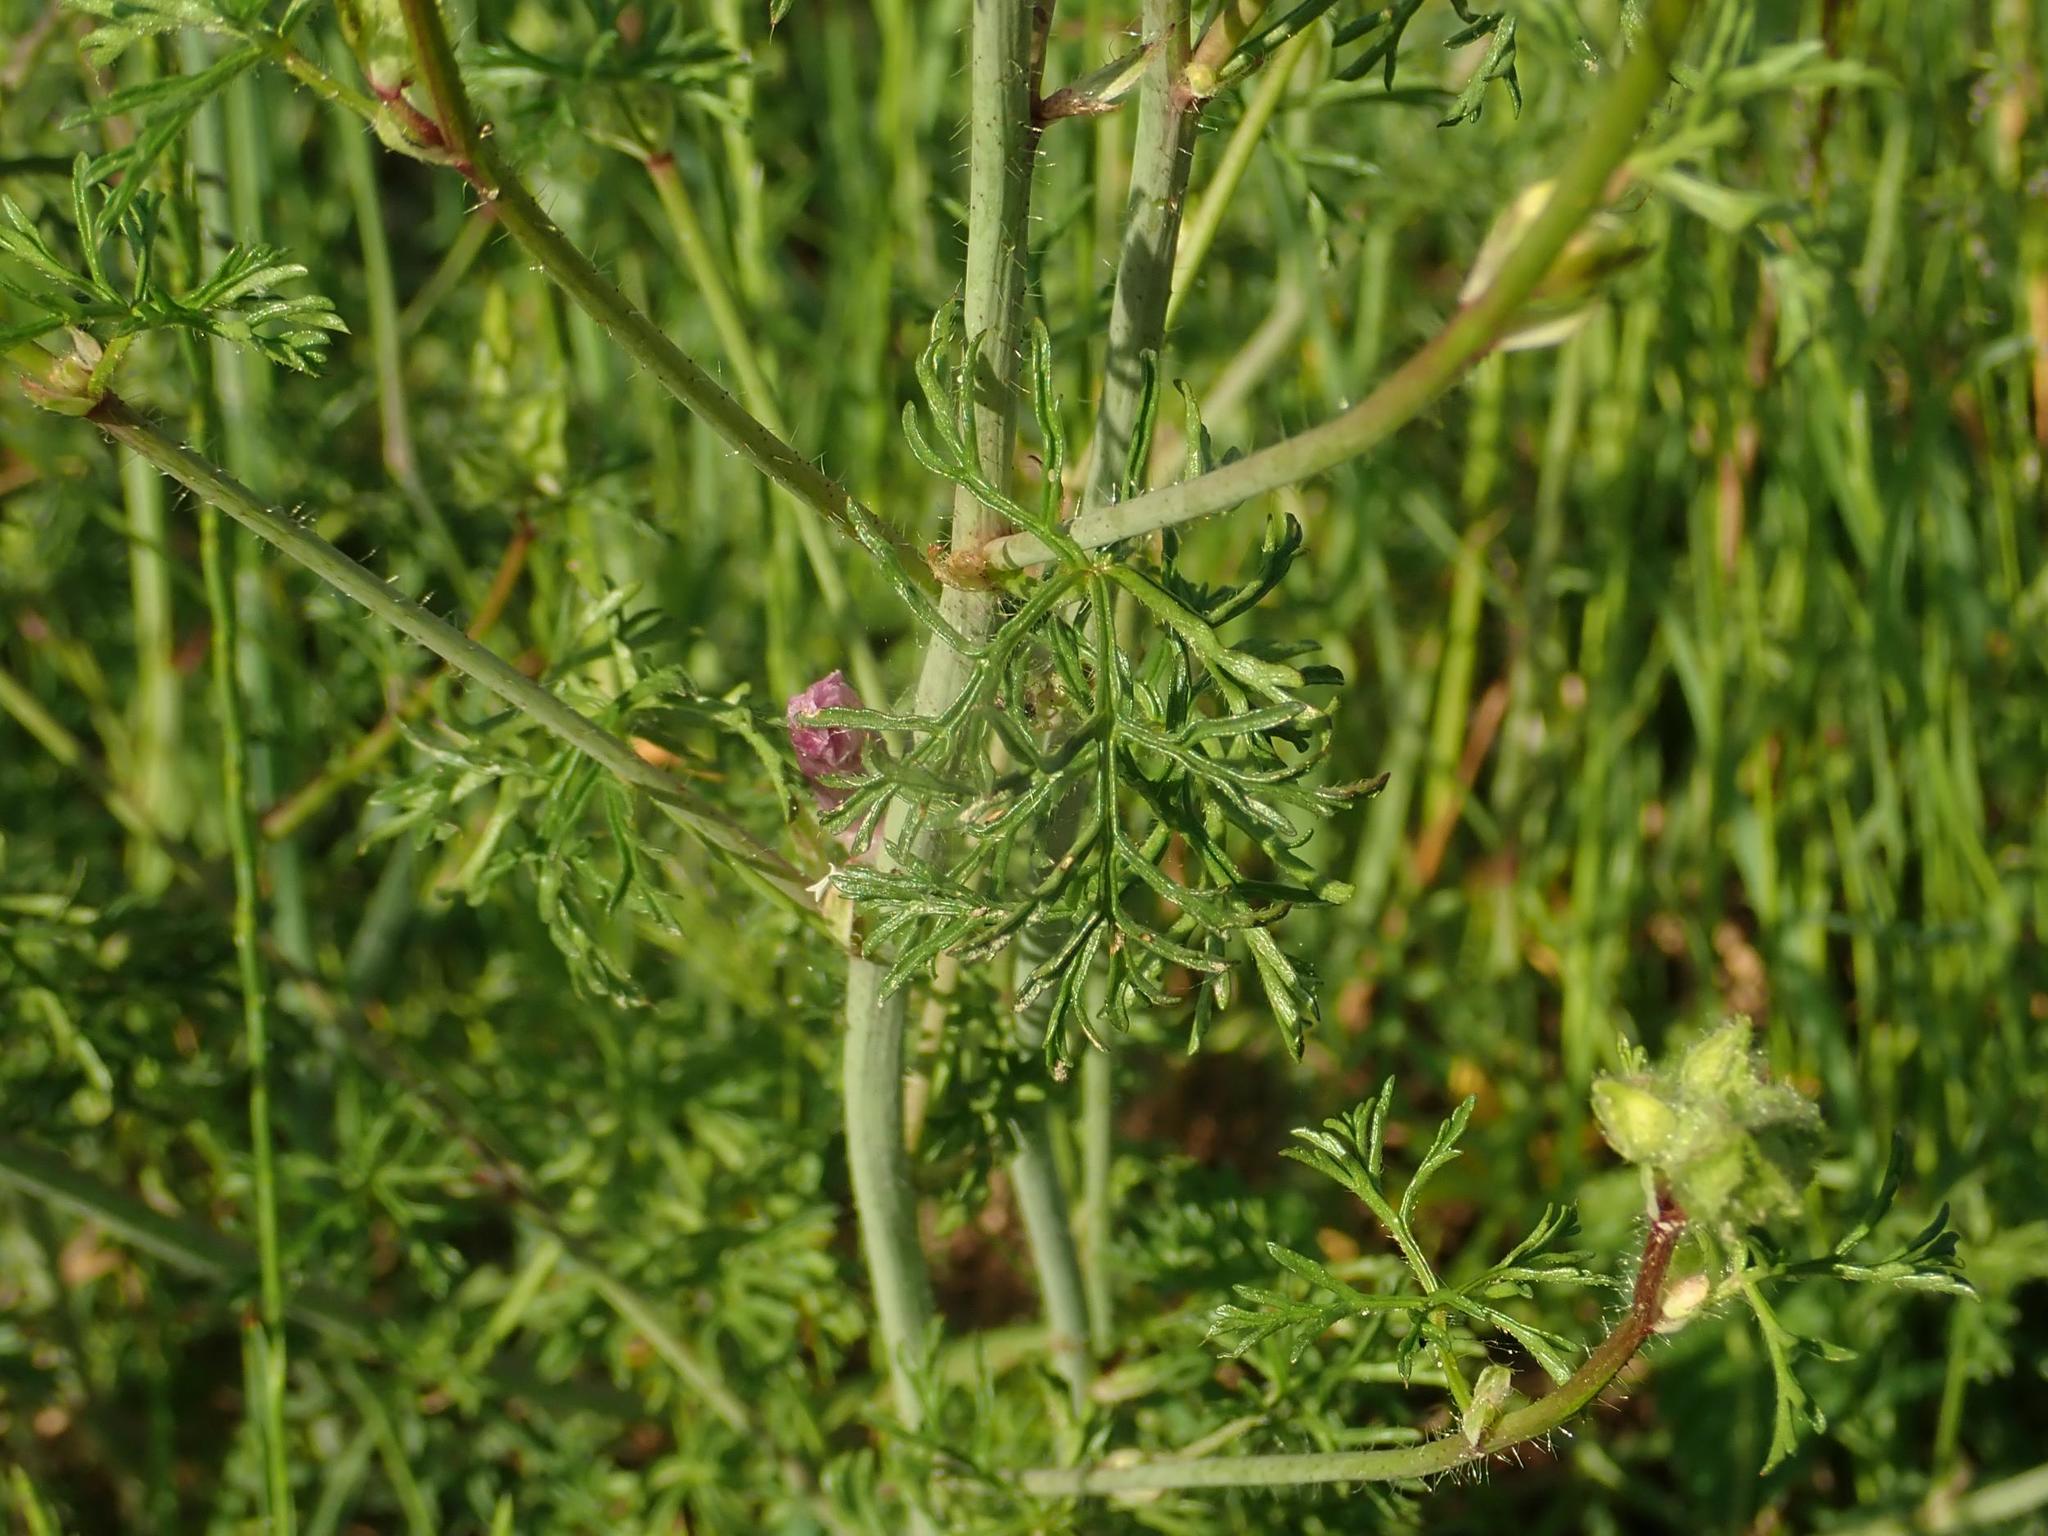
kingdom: Plantae
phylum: Tracheophyta
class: Magnoliopsida
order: Malvales
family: Malvaceae
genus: Malva
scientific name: Malva moschata
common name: Musk mallow
